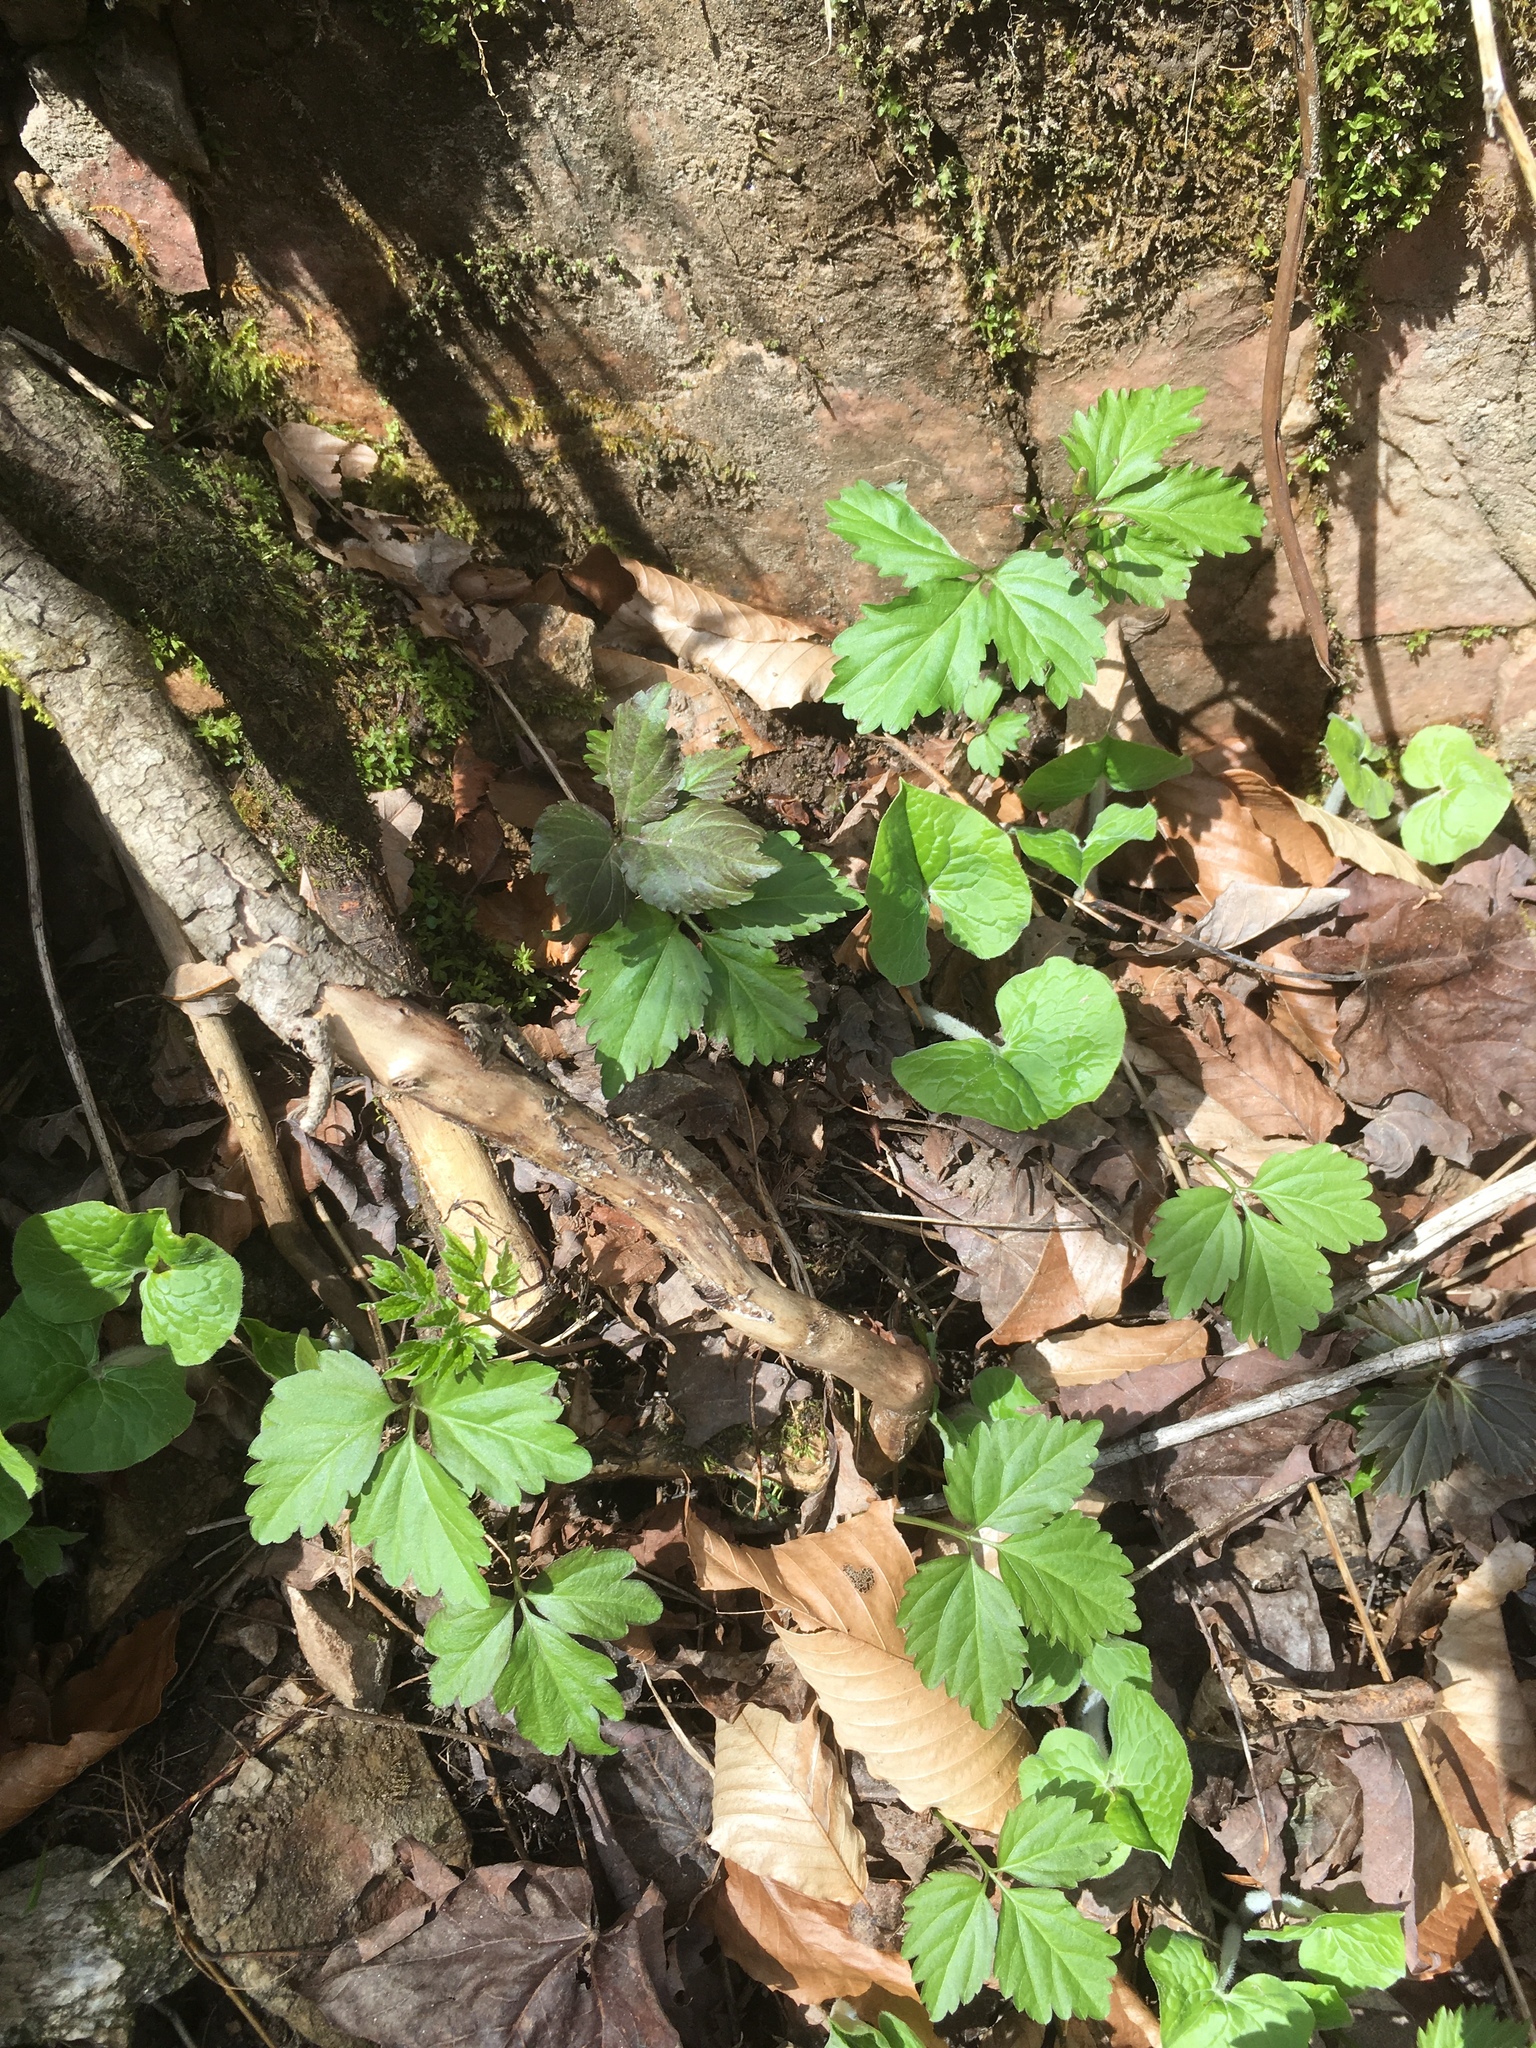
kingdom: Plantae
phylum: Tracheophyta
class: Magnoliopsida
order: Brassicales
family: Brassicaceae
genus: Cardamine
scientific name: Cardamine diphylla
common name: Broad-leaved toothwort
